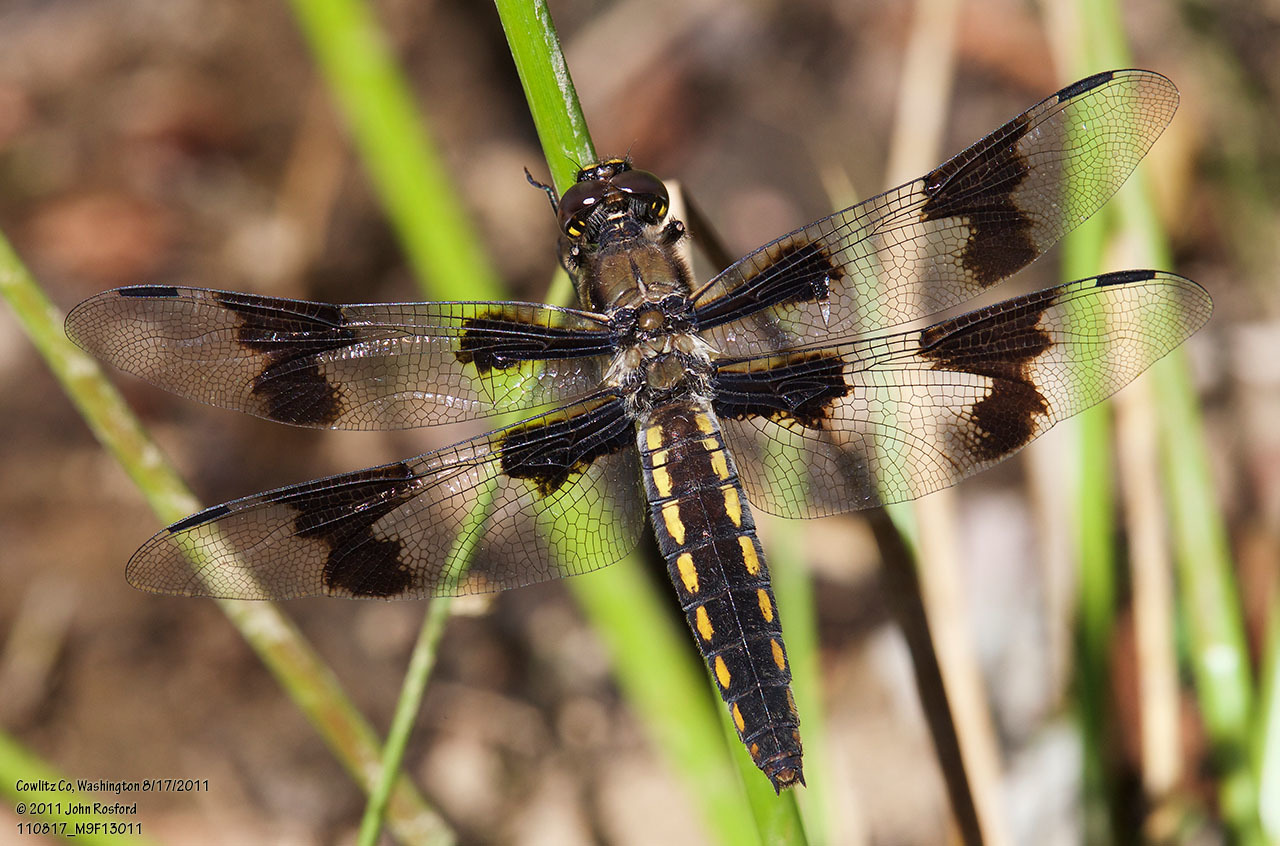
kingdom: Animalia
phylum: Arthropoda
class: Insecta
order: Odonata
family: Libellulidae
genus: Libellula
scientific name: Libellula forensis
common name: Eight-spotted skimmer
